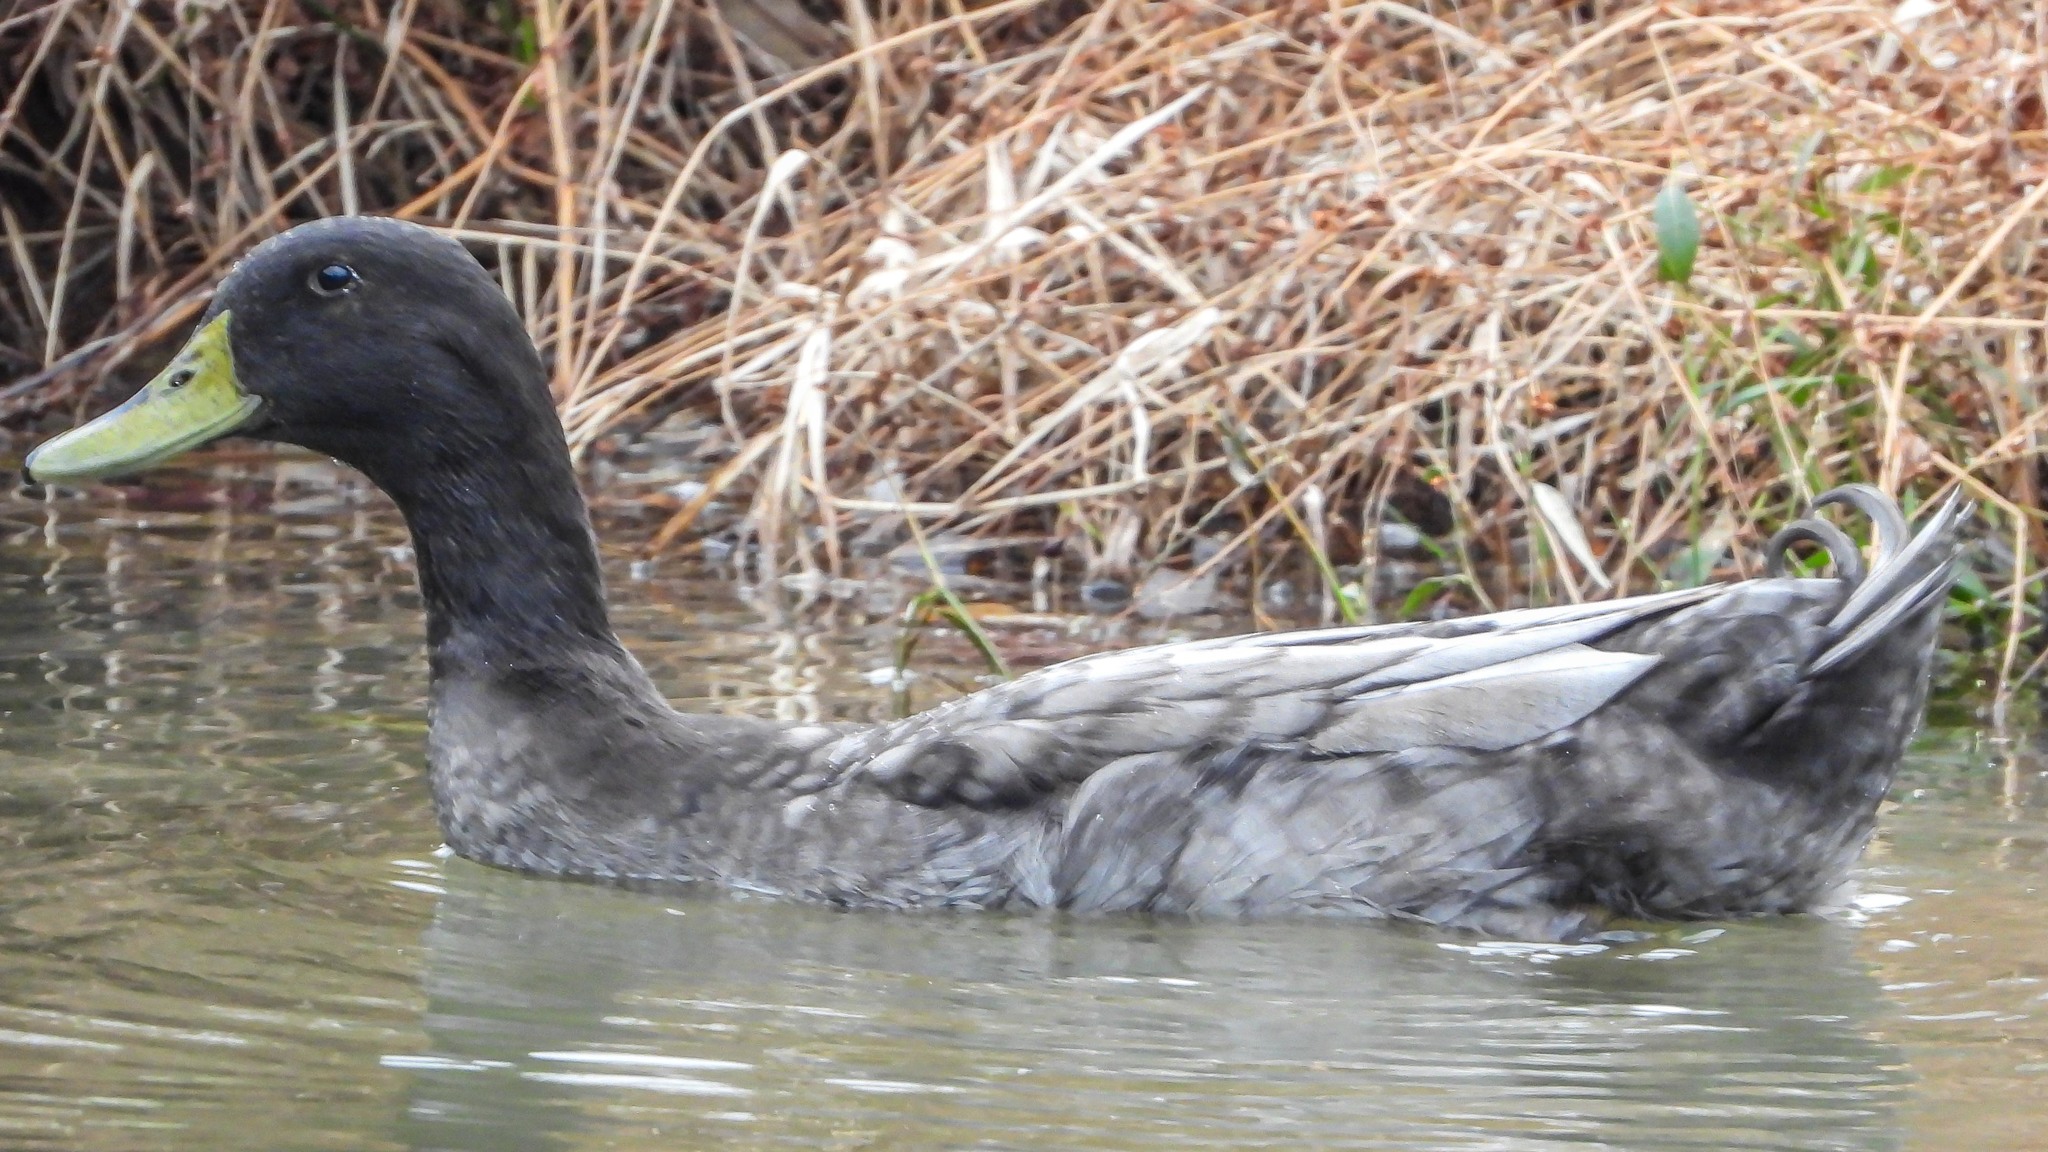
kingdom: Animalia
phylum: Chordata
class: Aves
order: Anseriformes
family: Anatidae
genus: Anas
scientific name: Anas platyrhynchos
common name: Mallard
